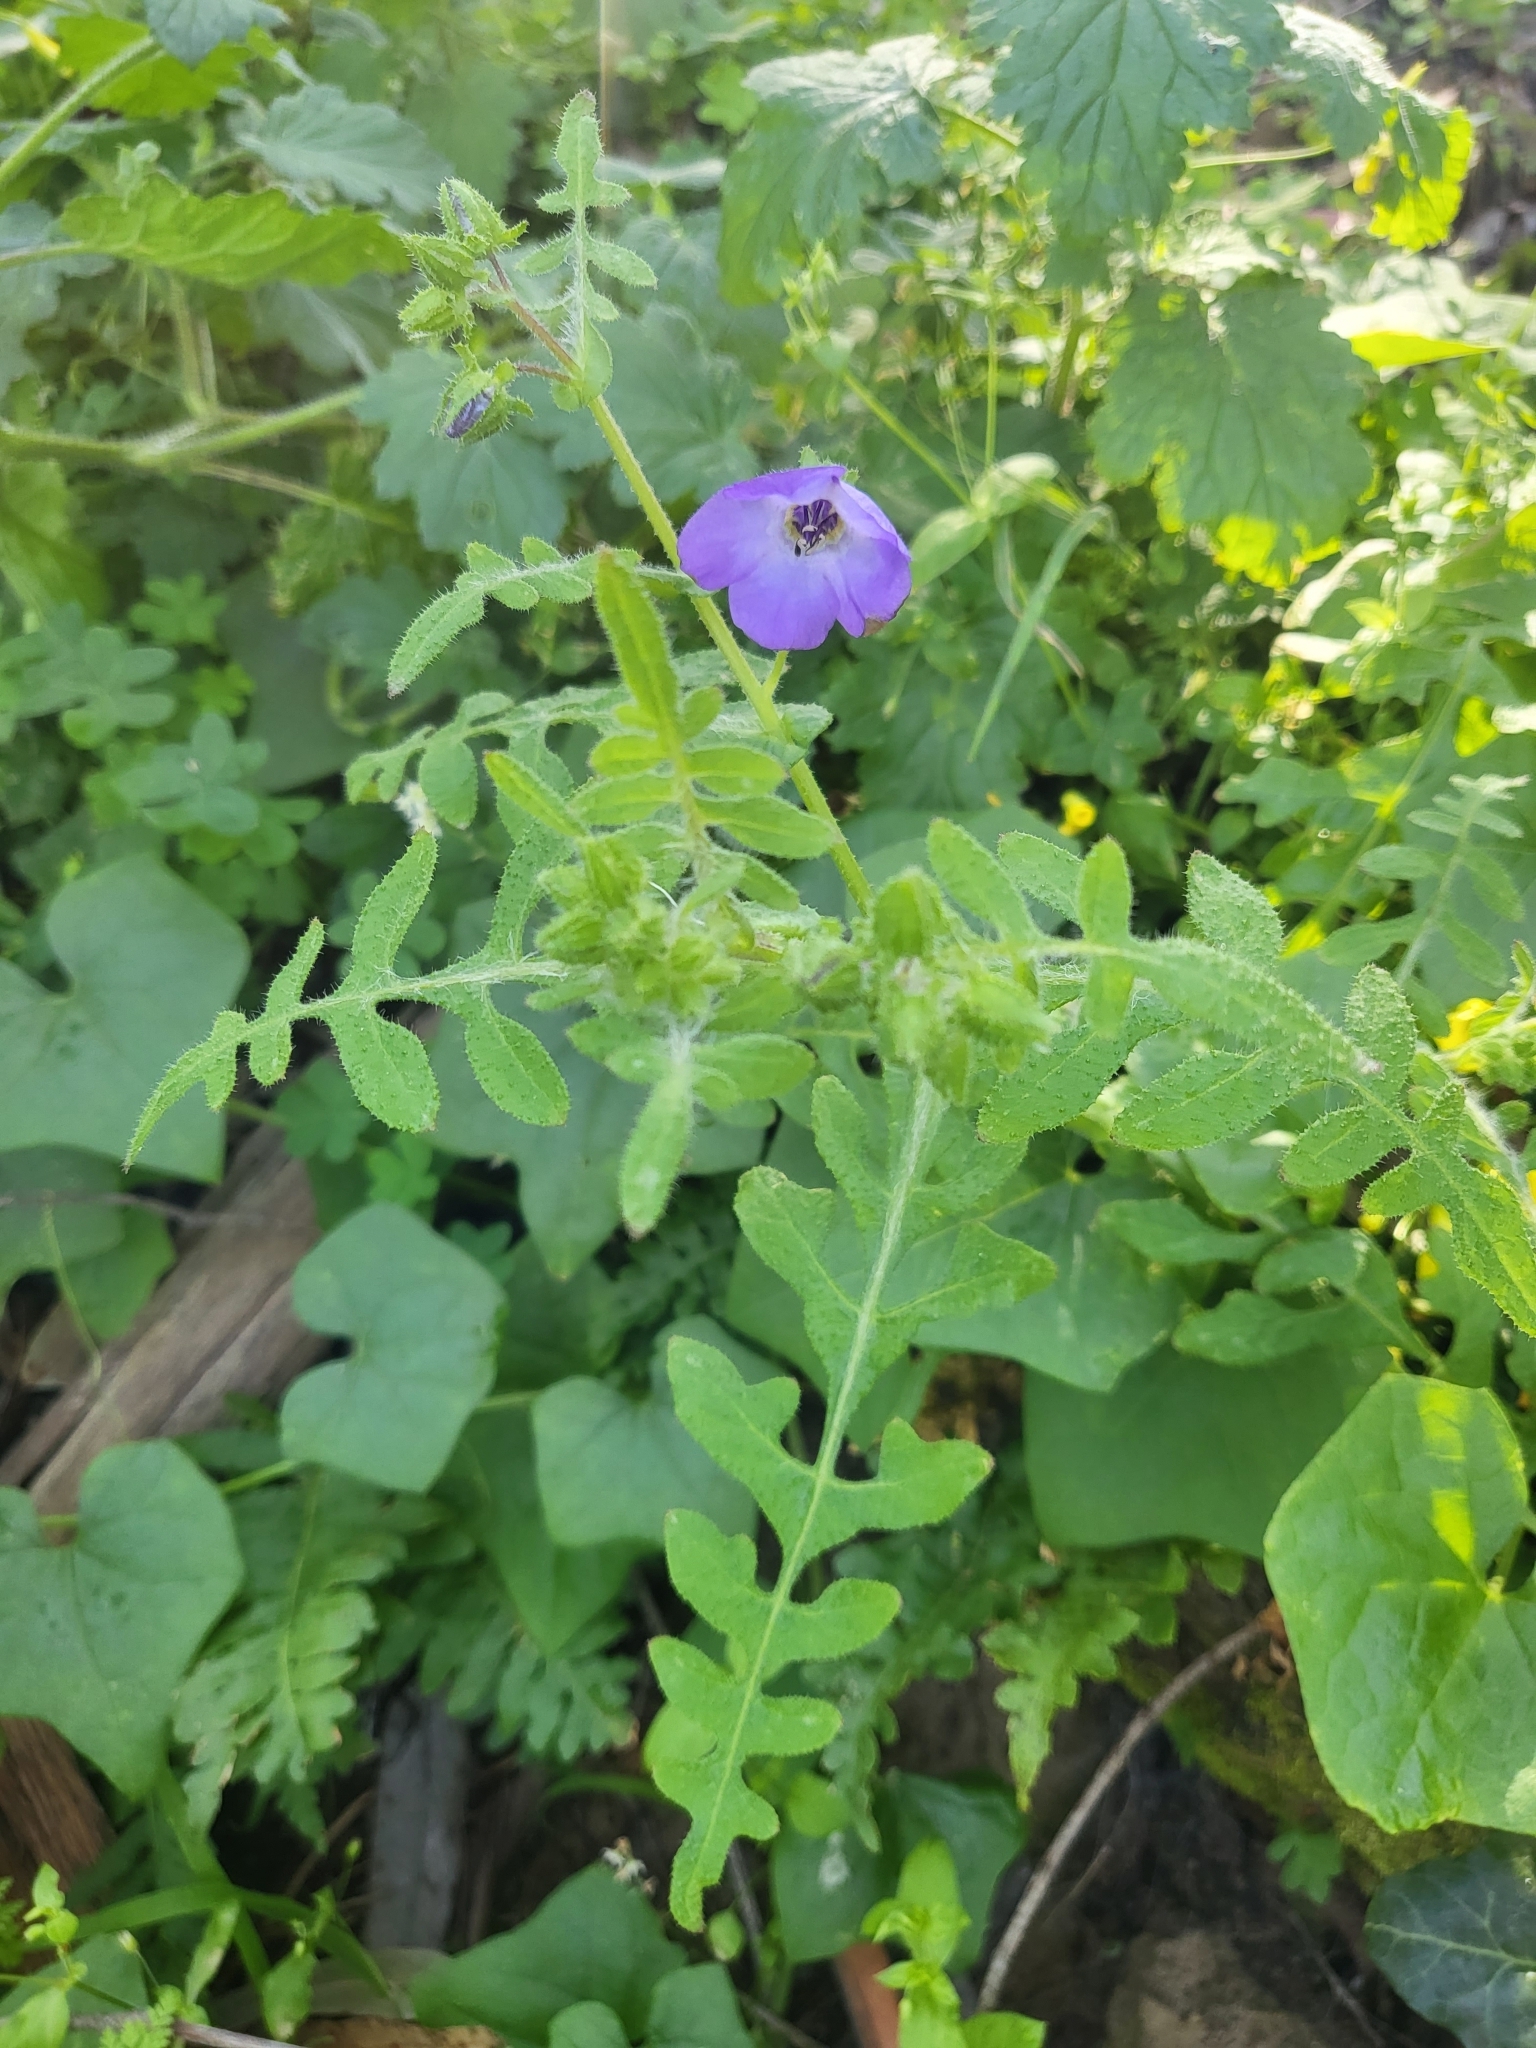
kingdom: Plantae
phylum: Tracheophyta
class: Magnoliopsida
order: Boraginales
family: Hydrophyllaceae
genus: Pholistoma
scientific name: Pholistoma auritum
